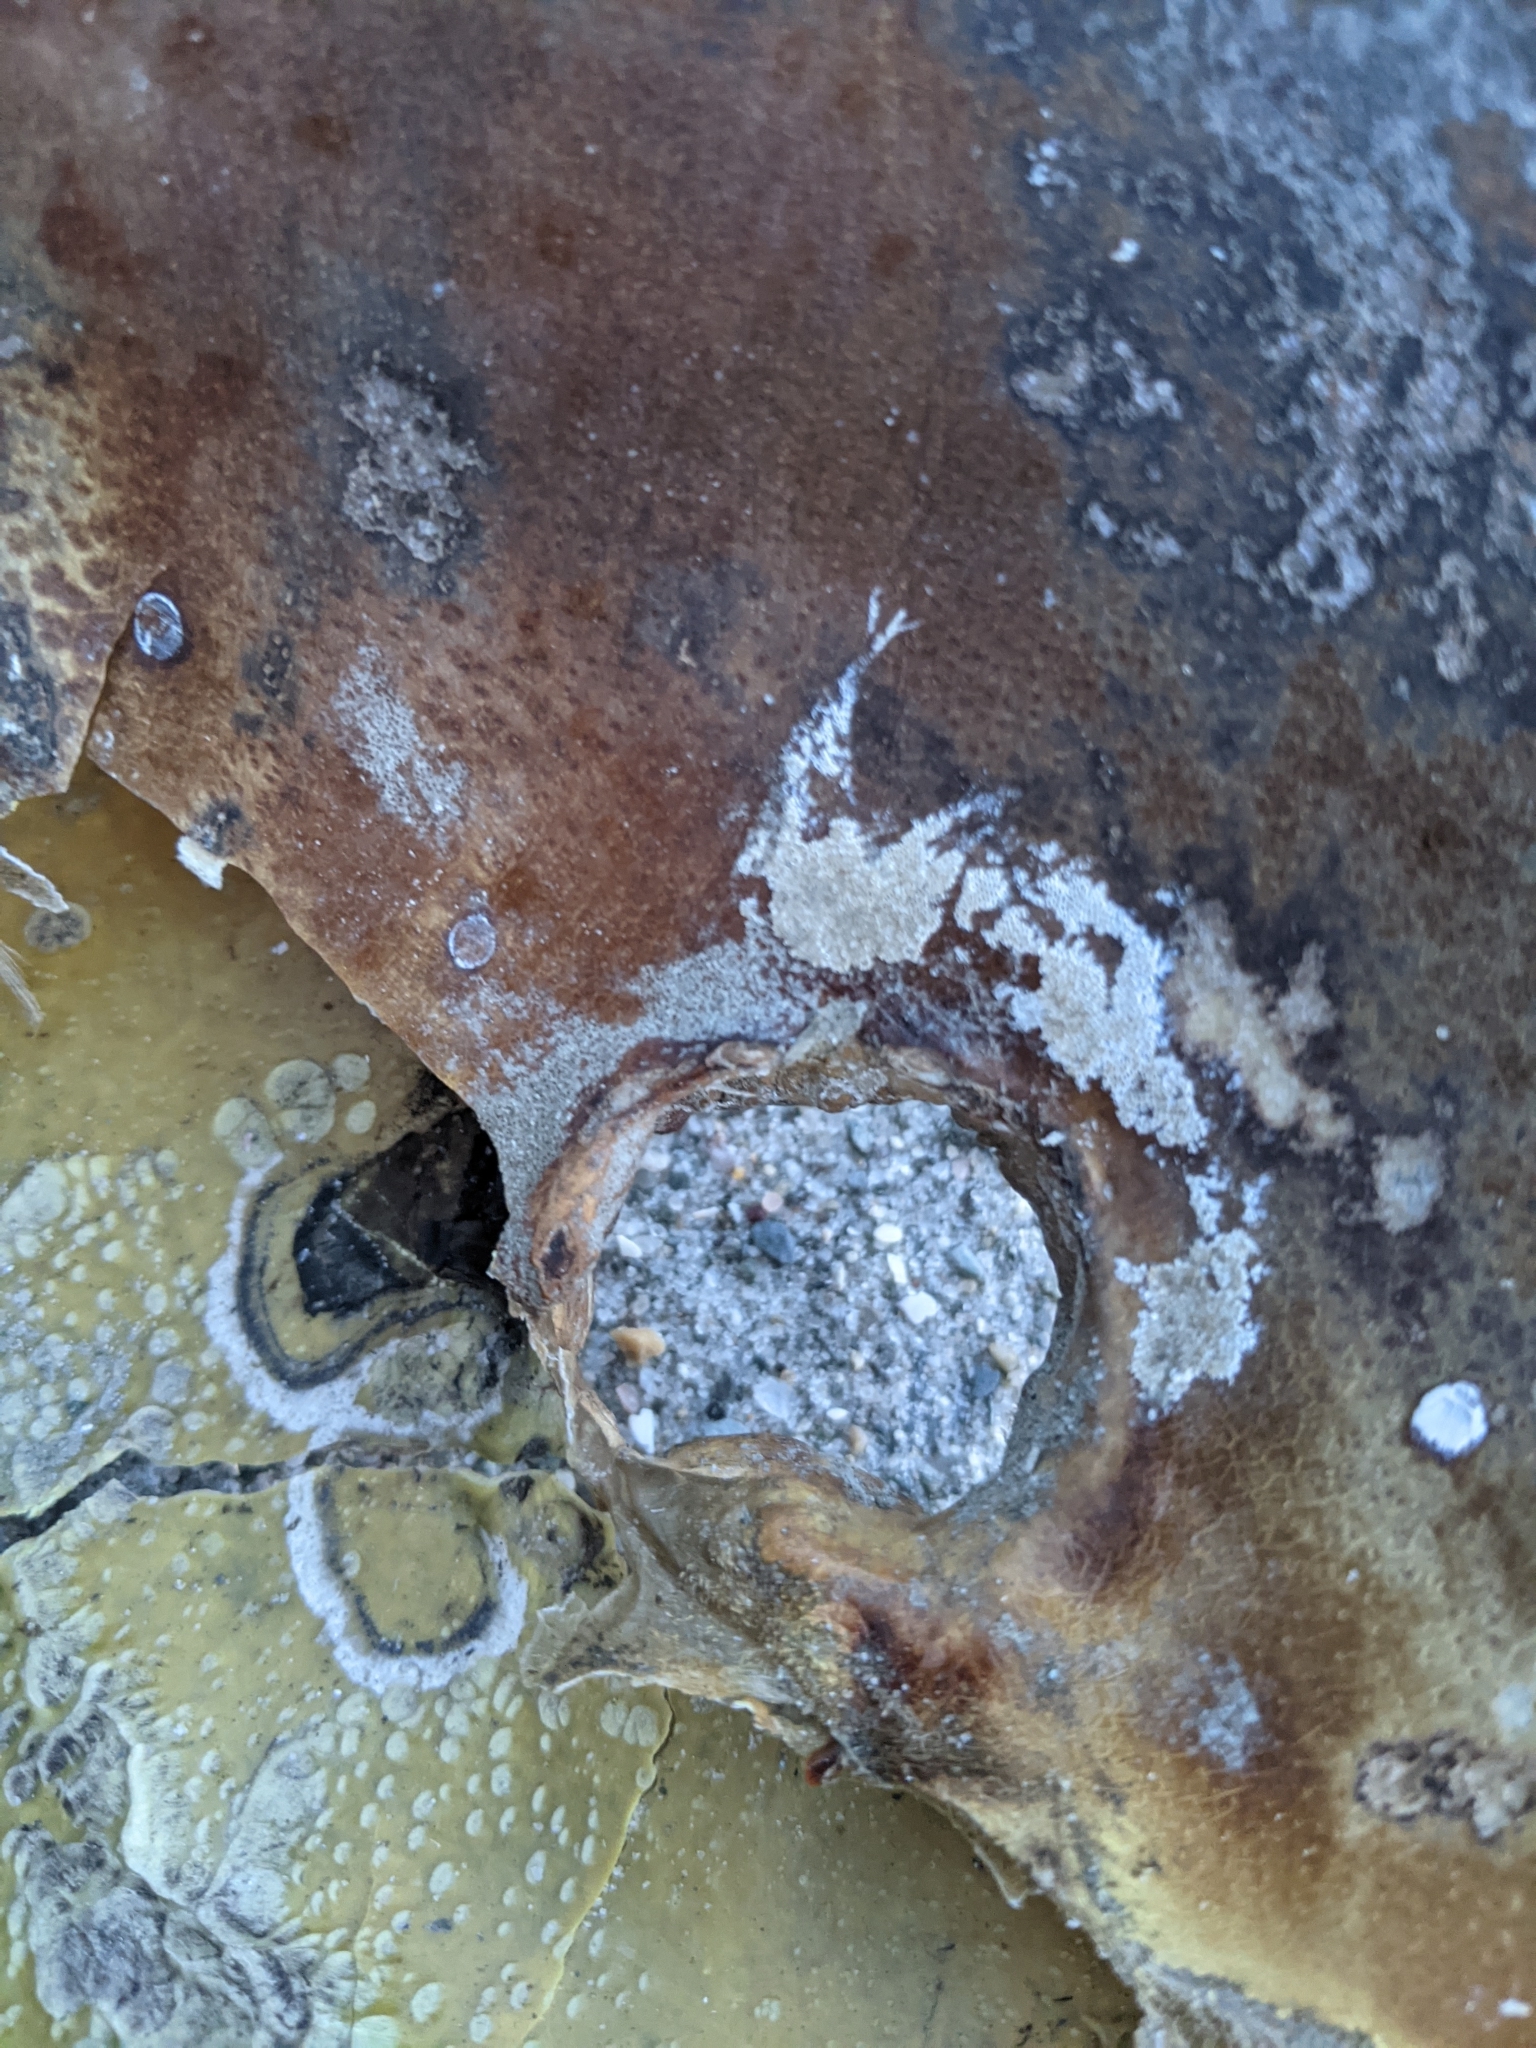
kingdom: Animalia
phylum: Arthropoda
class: Merostomata
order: Xiphosurida
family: Limulidae
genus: Limulus
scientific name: Limulus polyphemus
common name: Horseshoe crab
